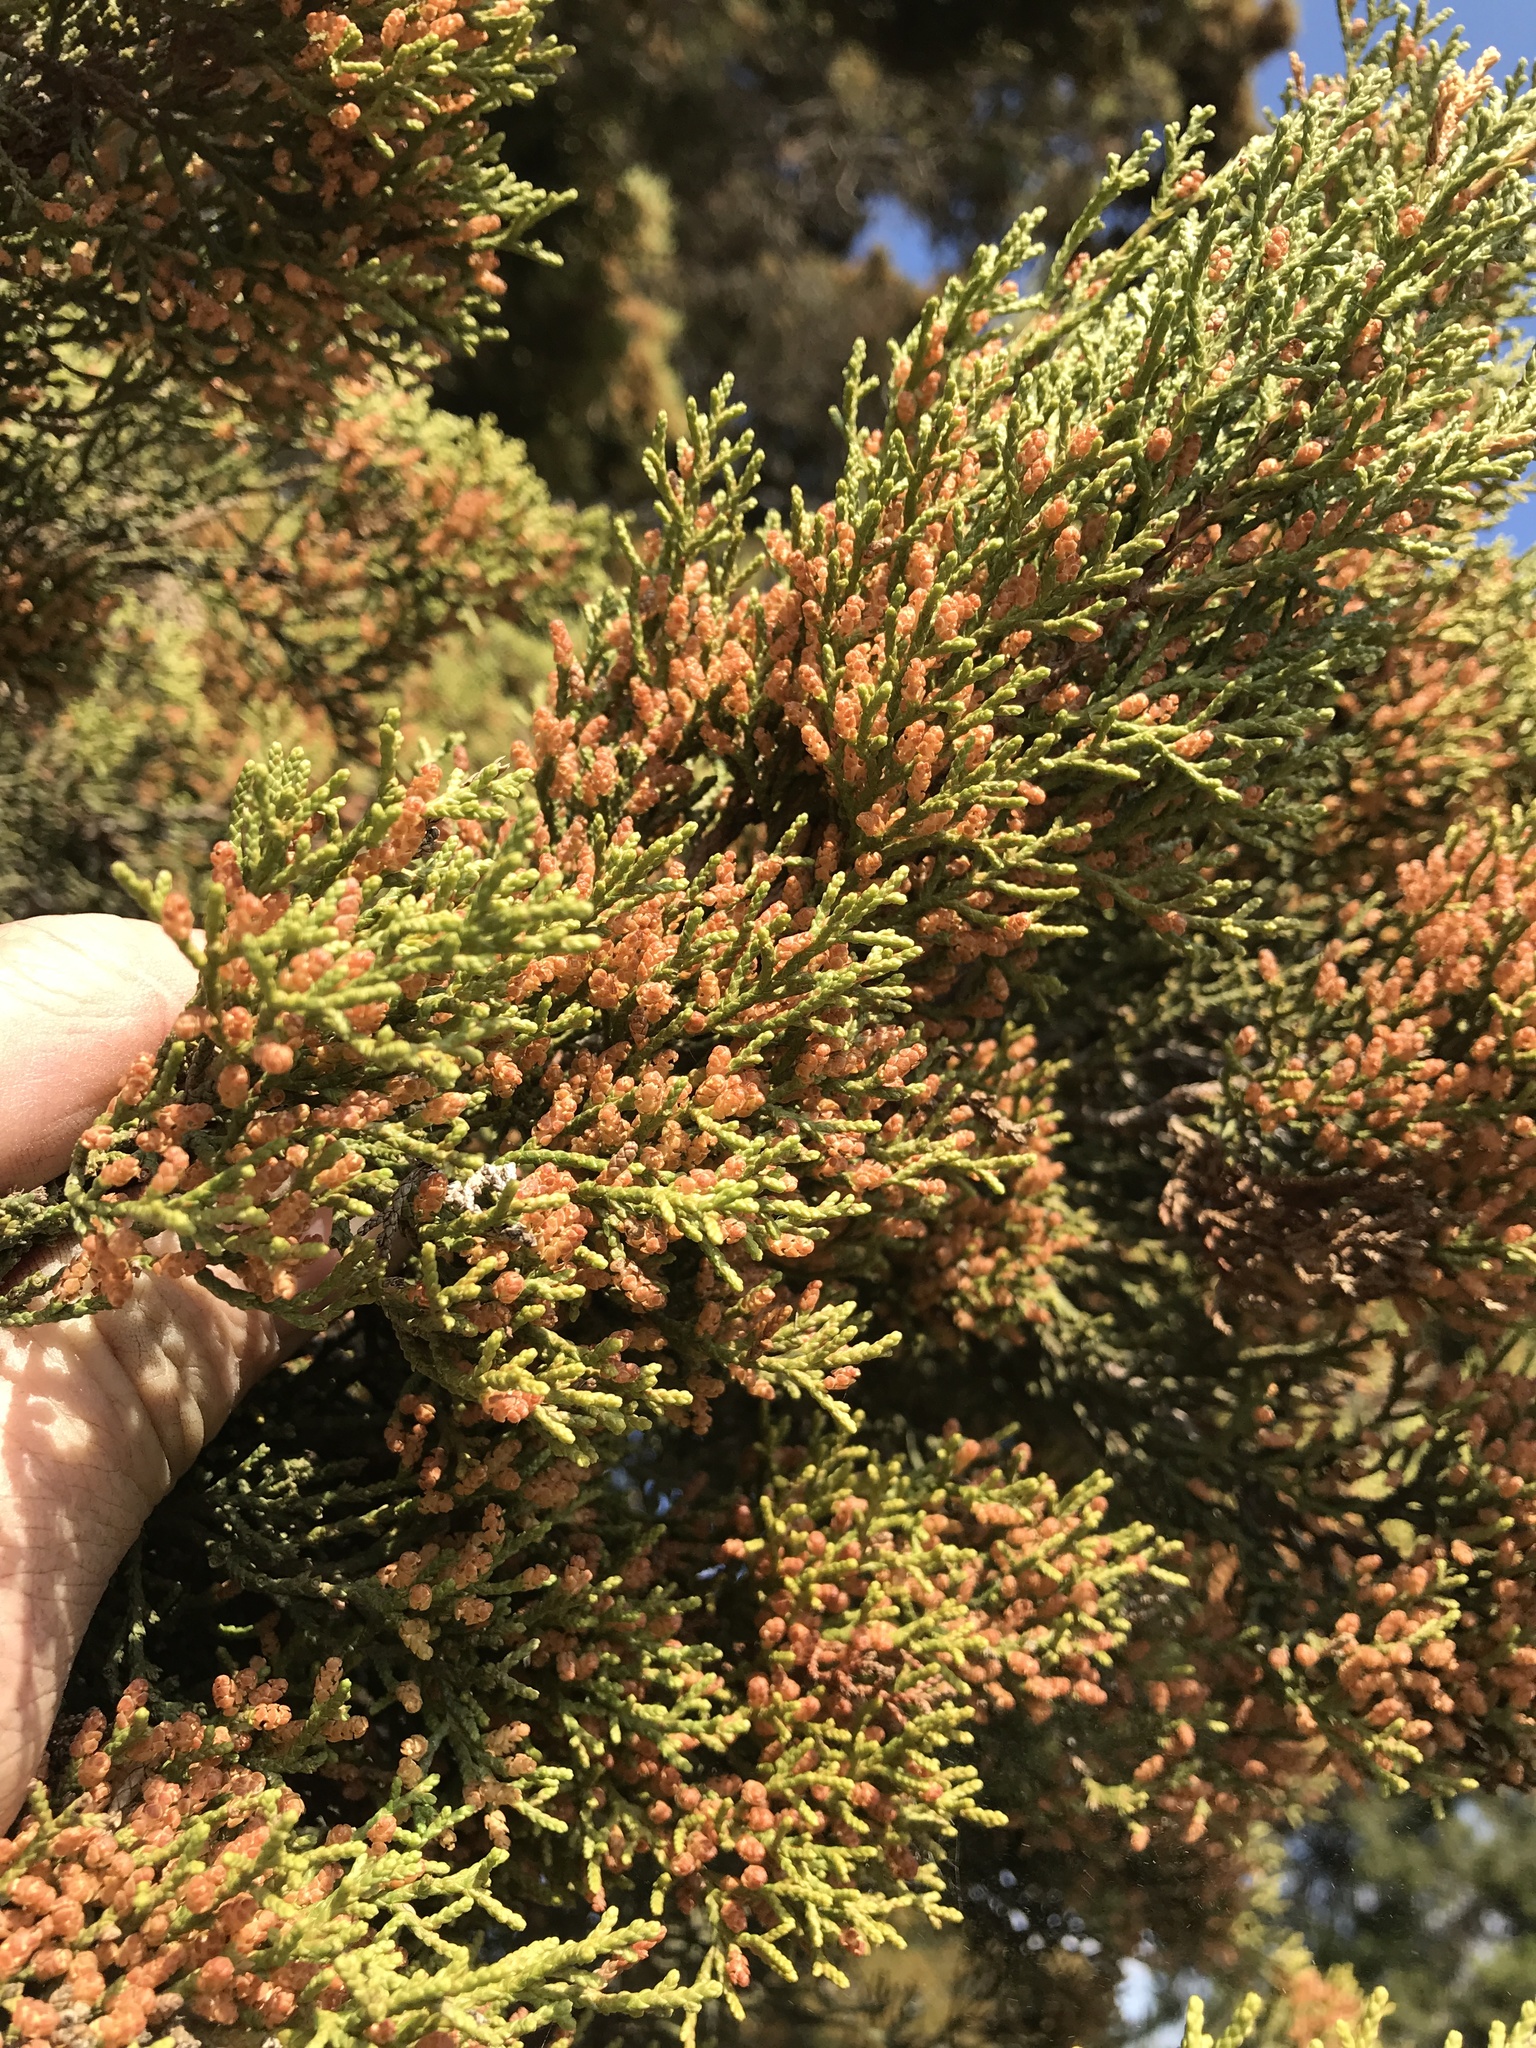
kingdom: Plantae
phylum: Tracheophyta
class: Pinopsida
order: Pinales
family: Cupressaceae
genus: Juniperus
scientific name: Juniperus ashei
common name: Mexican juniper
